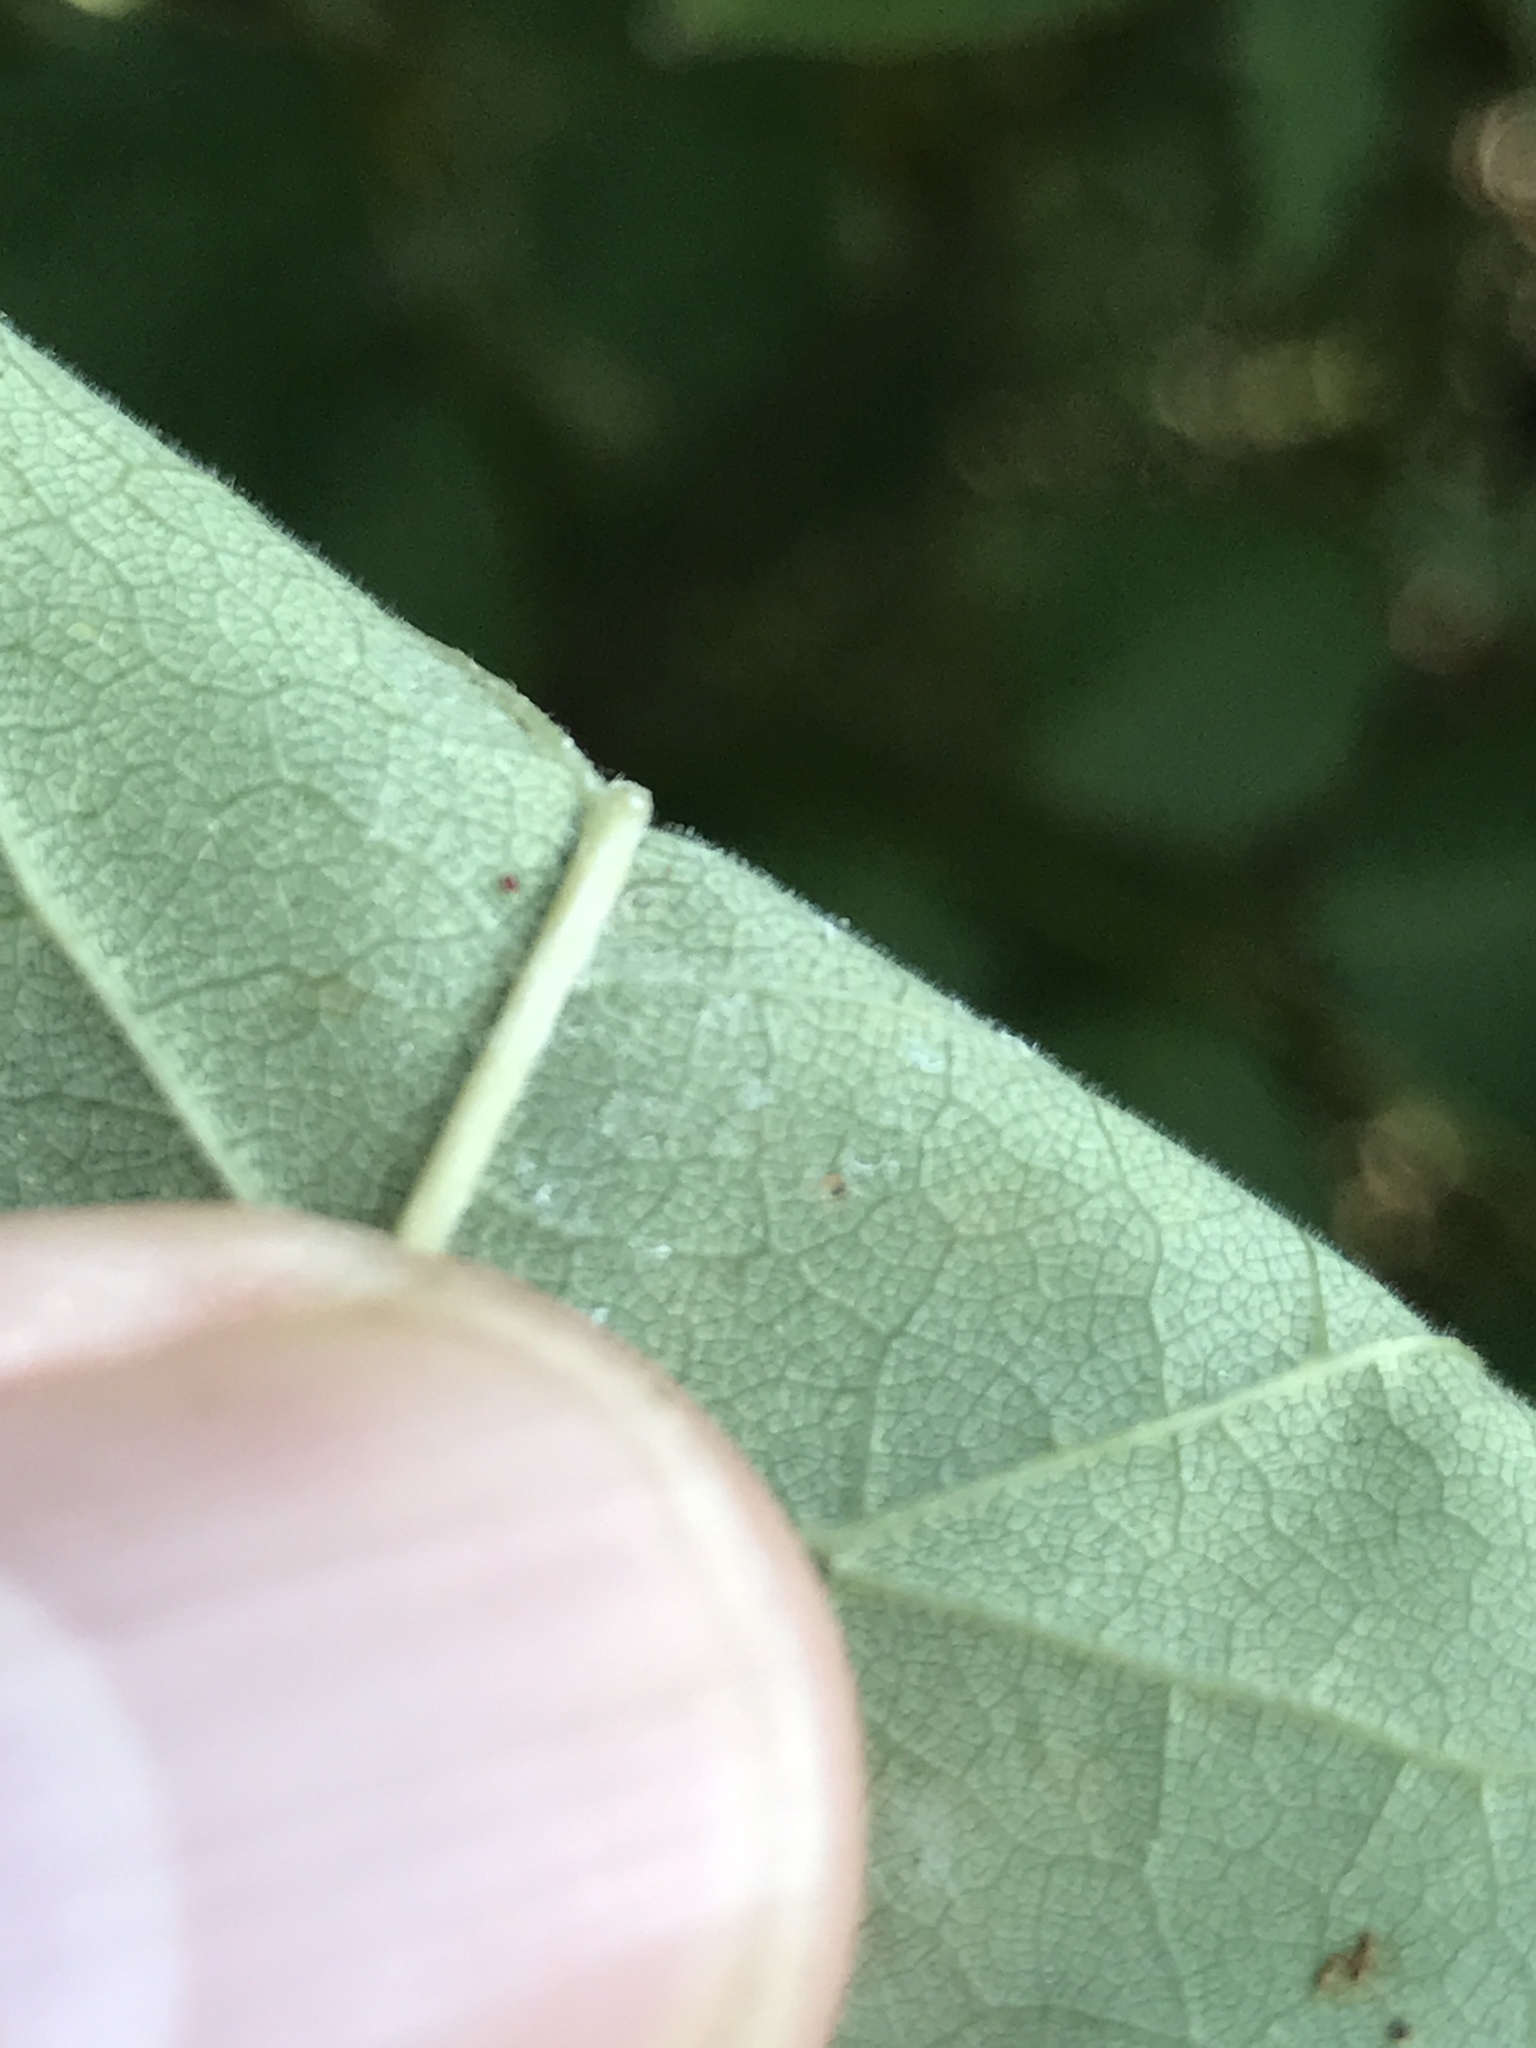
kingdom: Plantae
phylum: Tracheophyta
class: Magnoliopsida
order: Lamiales
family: Oleaceae
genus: Fraxinus
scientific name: Fraxinus americana
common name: White ash
